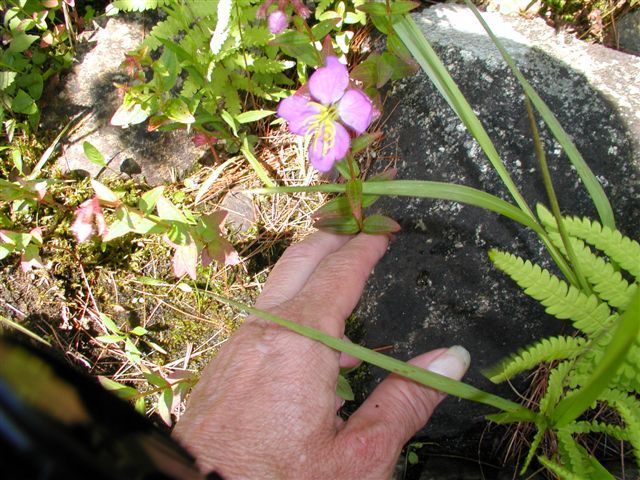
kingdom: Plantae
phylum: Tracheophyta
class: Magnoliopsida
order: Myrtales
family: Melastomataceae
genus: Rhexia
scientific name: Rhexia virginica
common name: Common meadow beauty
